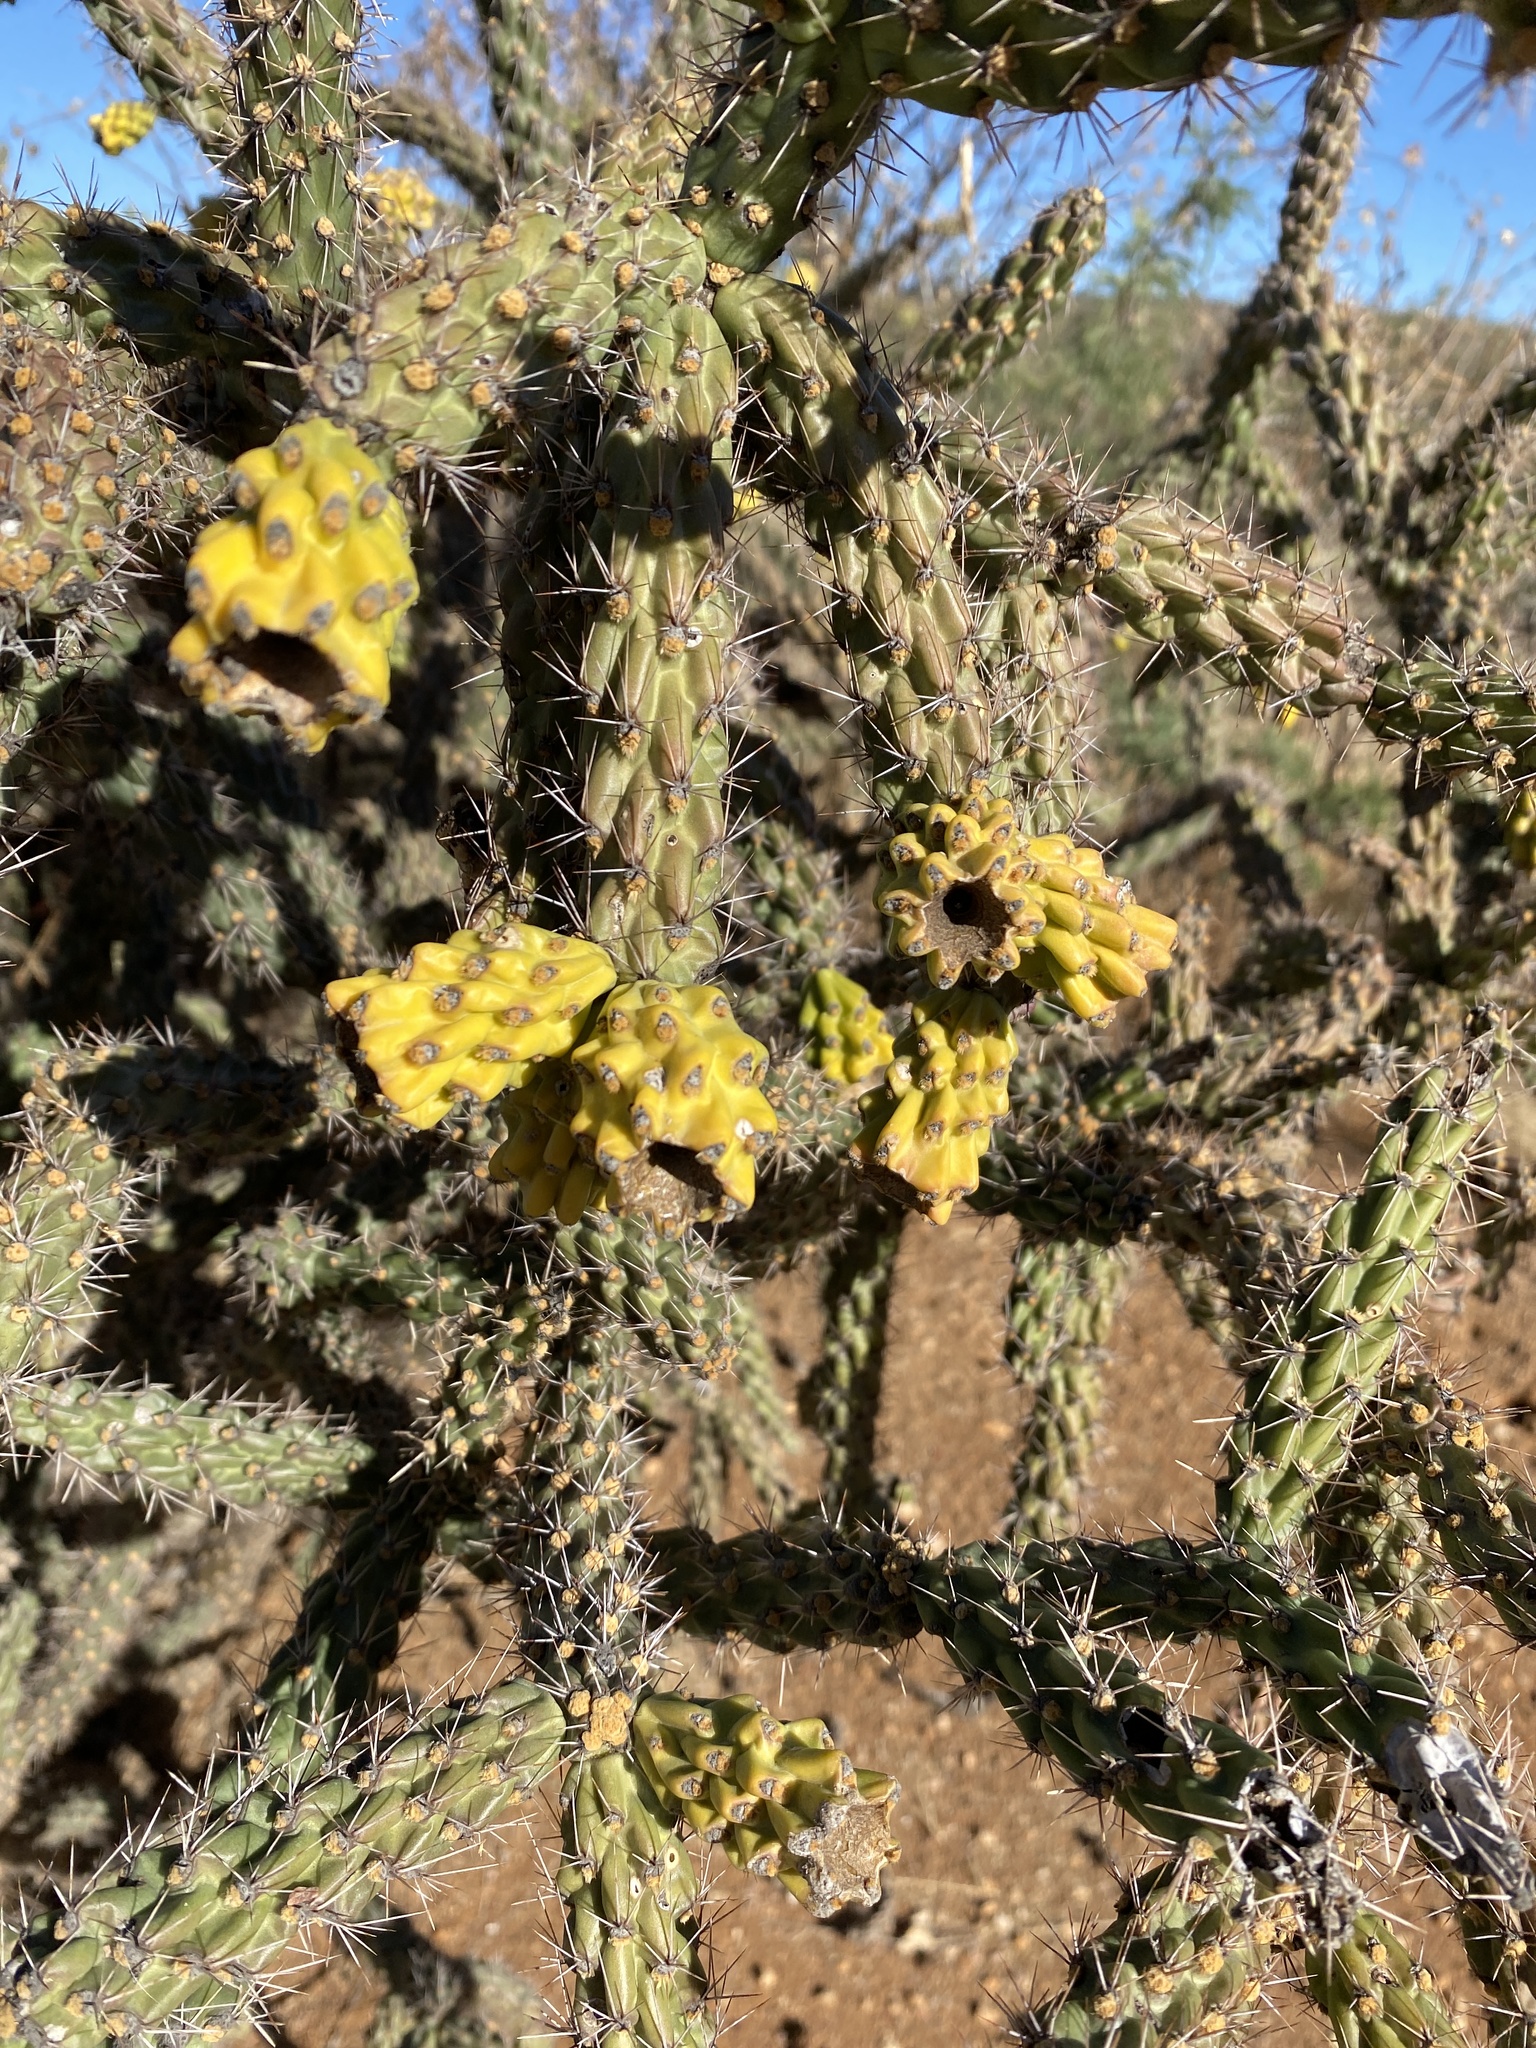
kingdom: Plantae
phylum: Tracheophyta
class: Magnoliopsida
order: Caryophyllales
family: Cactaceae
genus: Cylindropuntia
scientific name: Cylindropuntia imbricata
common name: Candelabrum cactus
